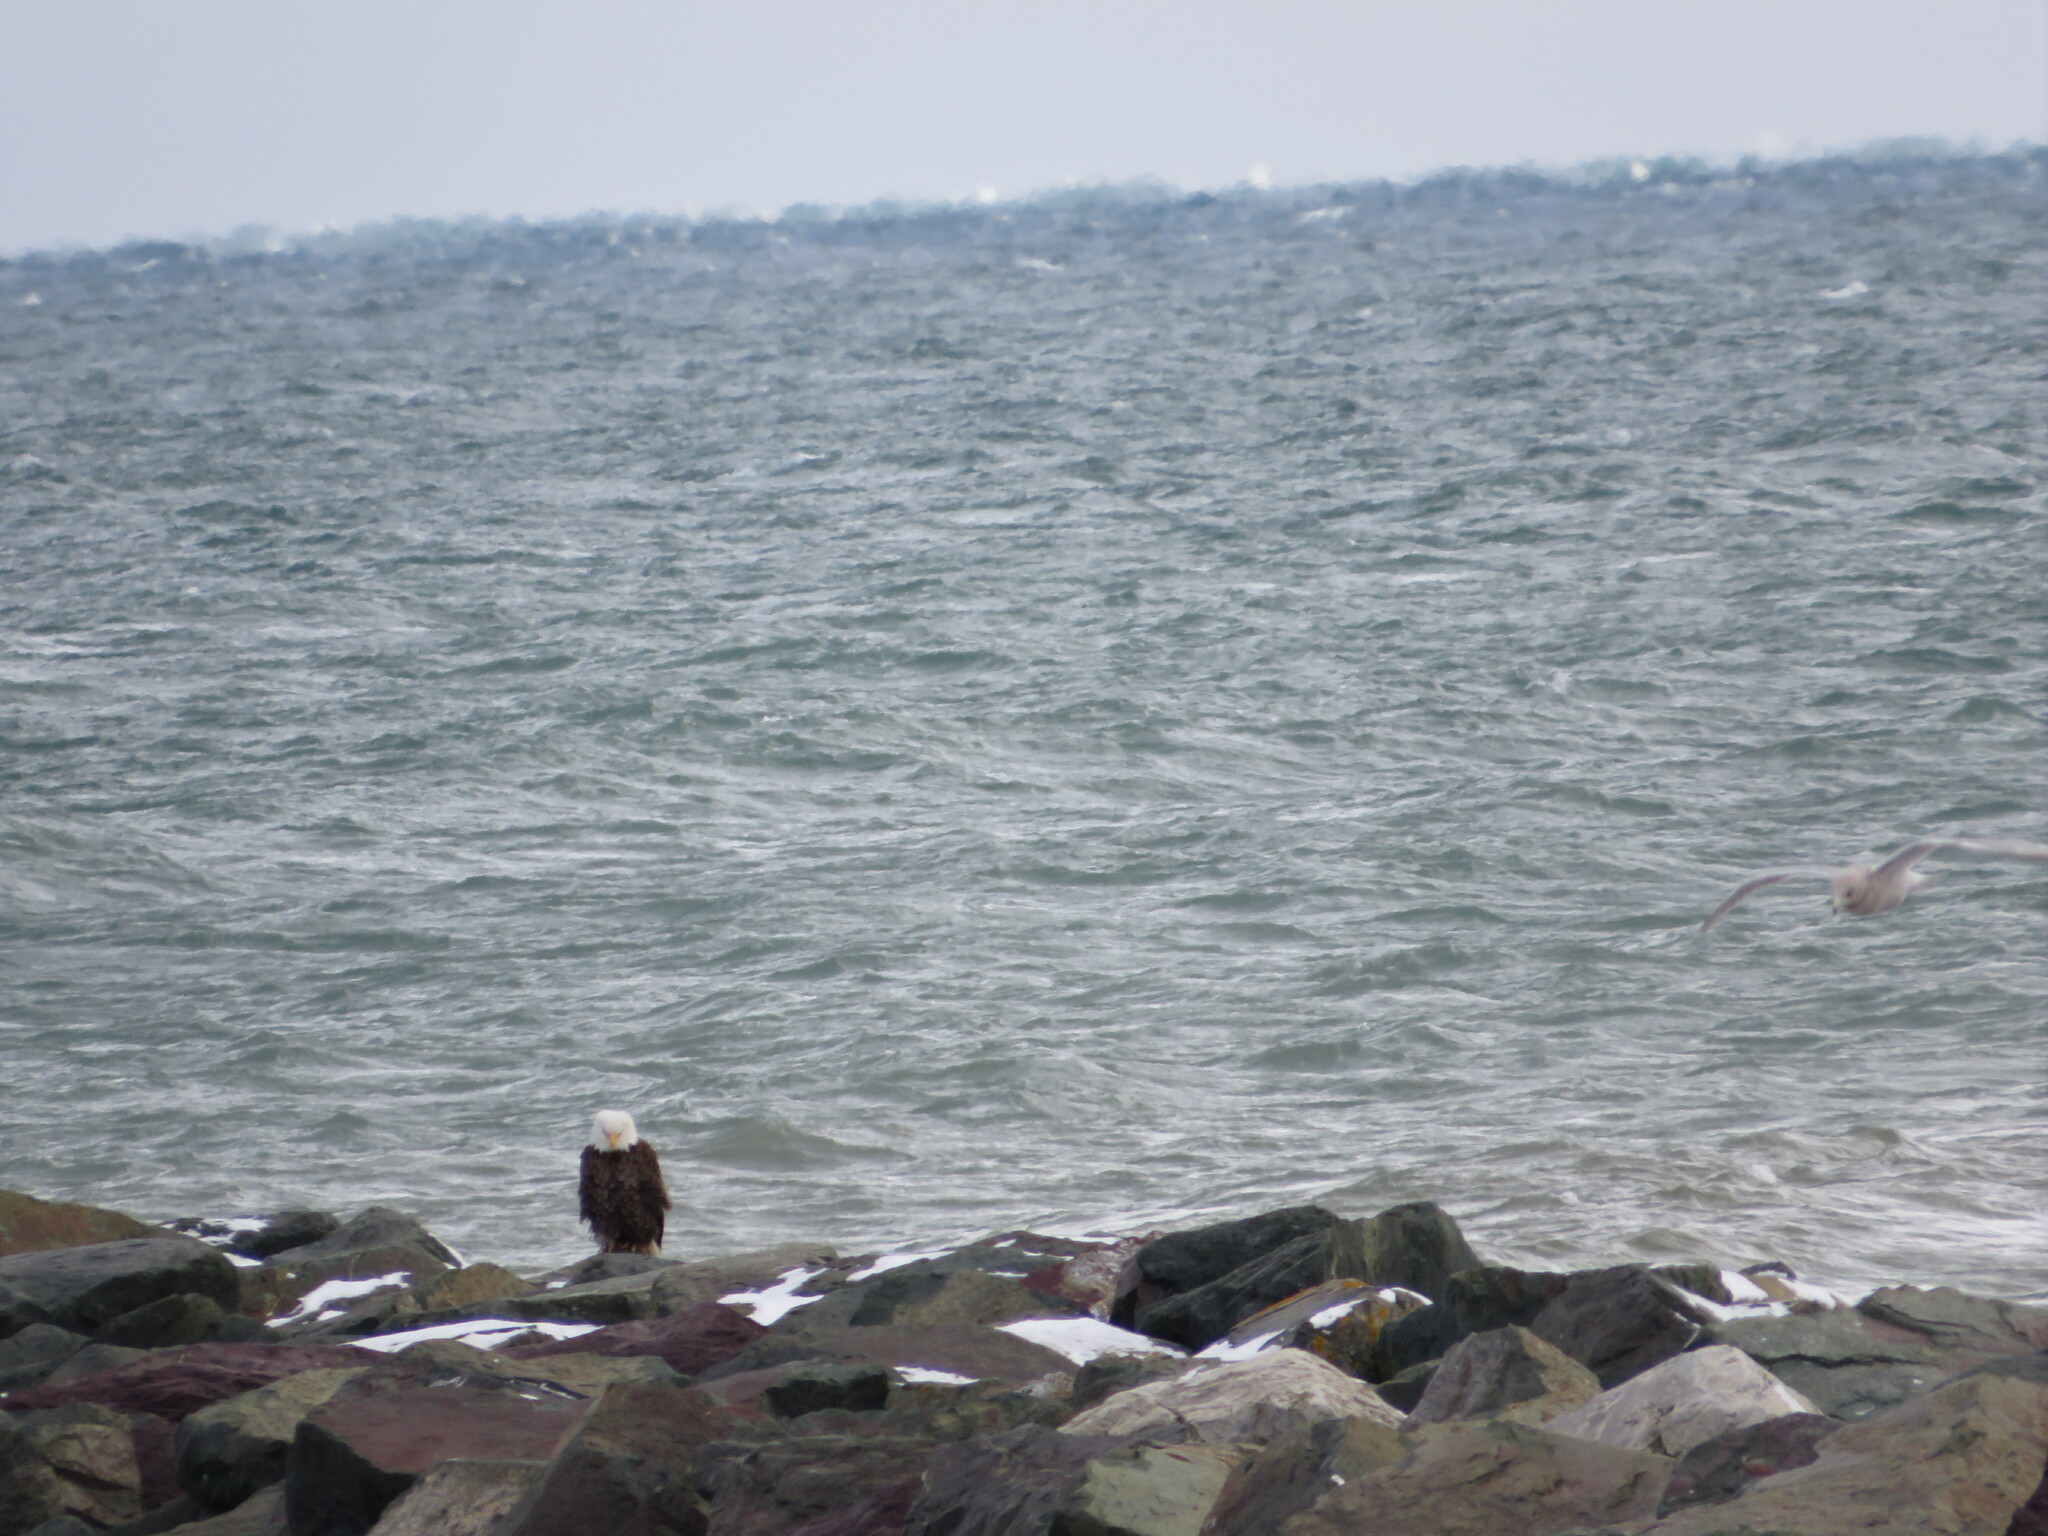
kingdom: Animalia
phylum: Chordata
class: Aves
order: Accipitriformes
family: Accipitridae
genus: Haliaeetus
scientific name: Haliaeetus leucocephalus
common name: Bald eagle
